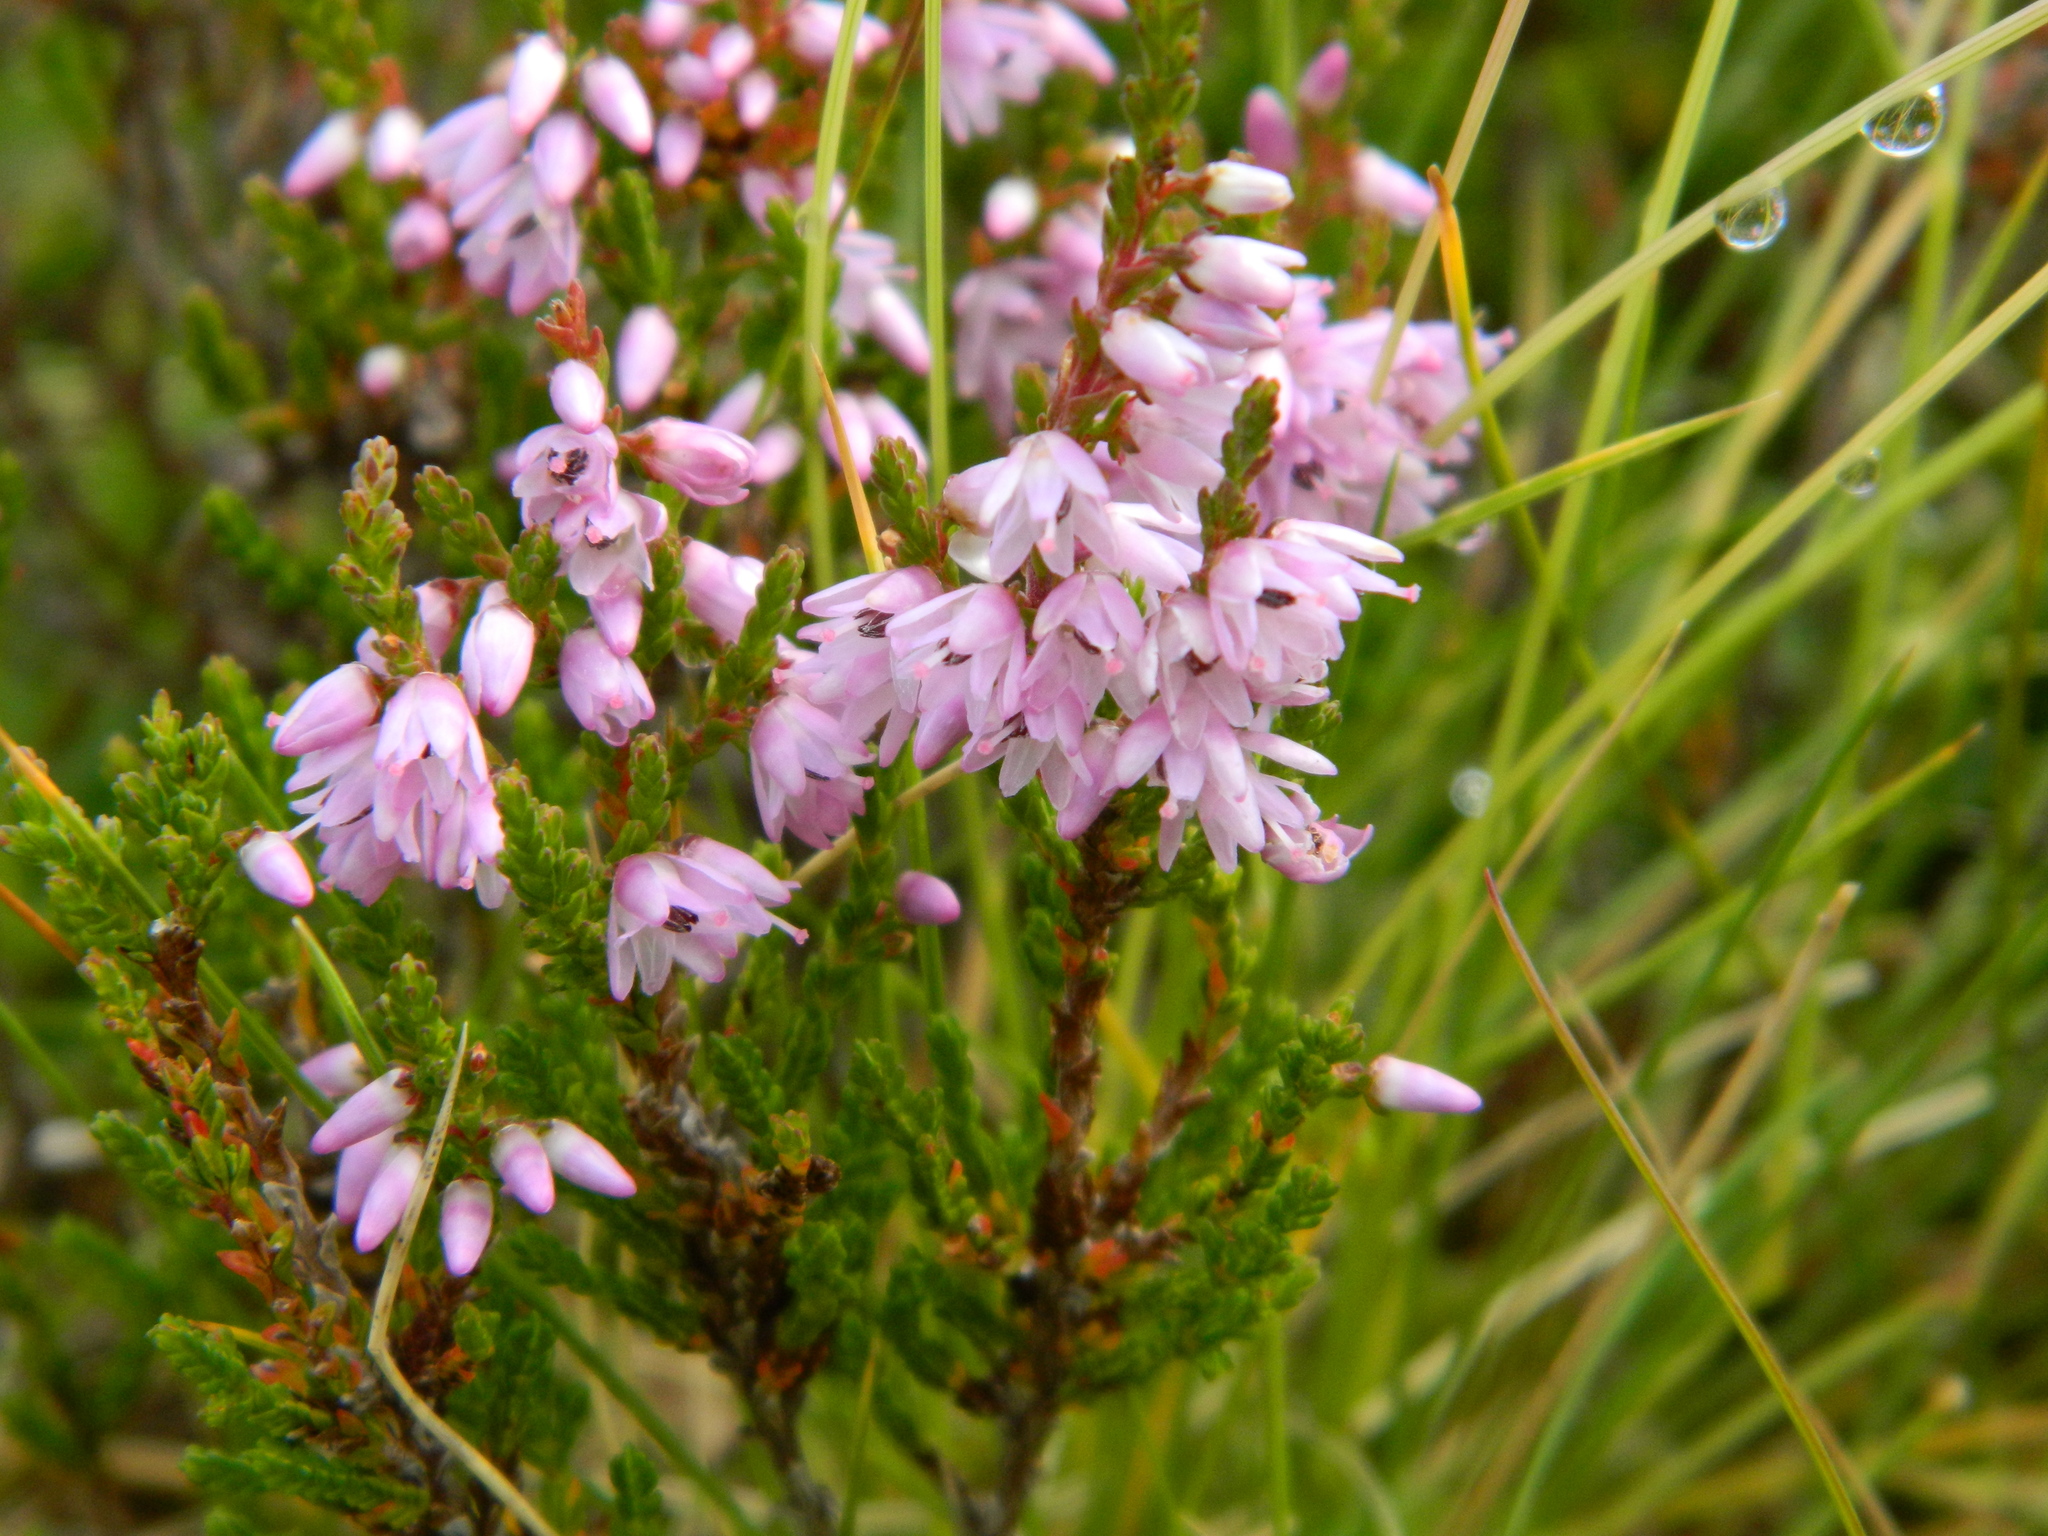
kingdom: Plantae
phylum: Tracheophyta
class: Magnoliopsida
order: Ericales
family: Ericaceae
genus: Calluna
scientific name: Calluna vulgaris
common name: Heather
